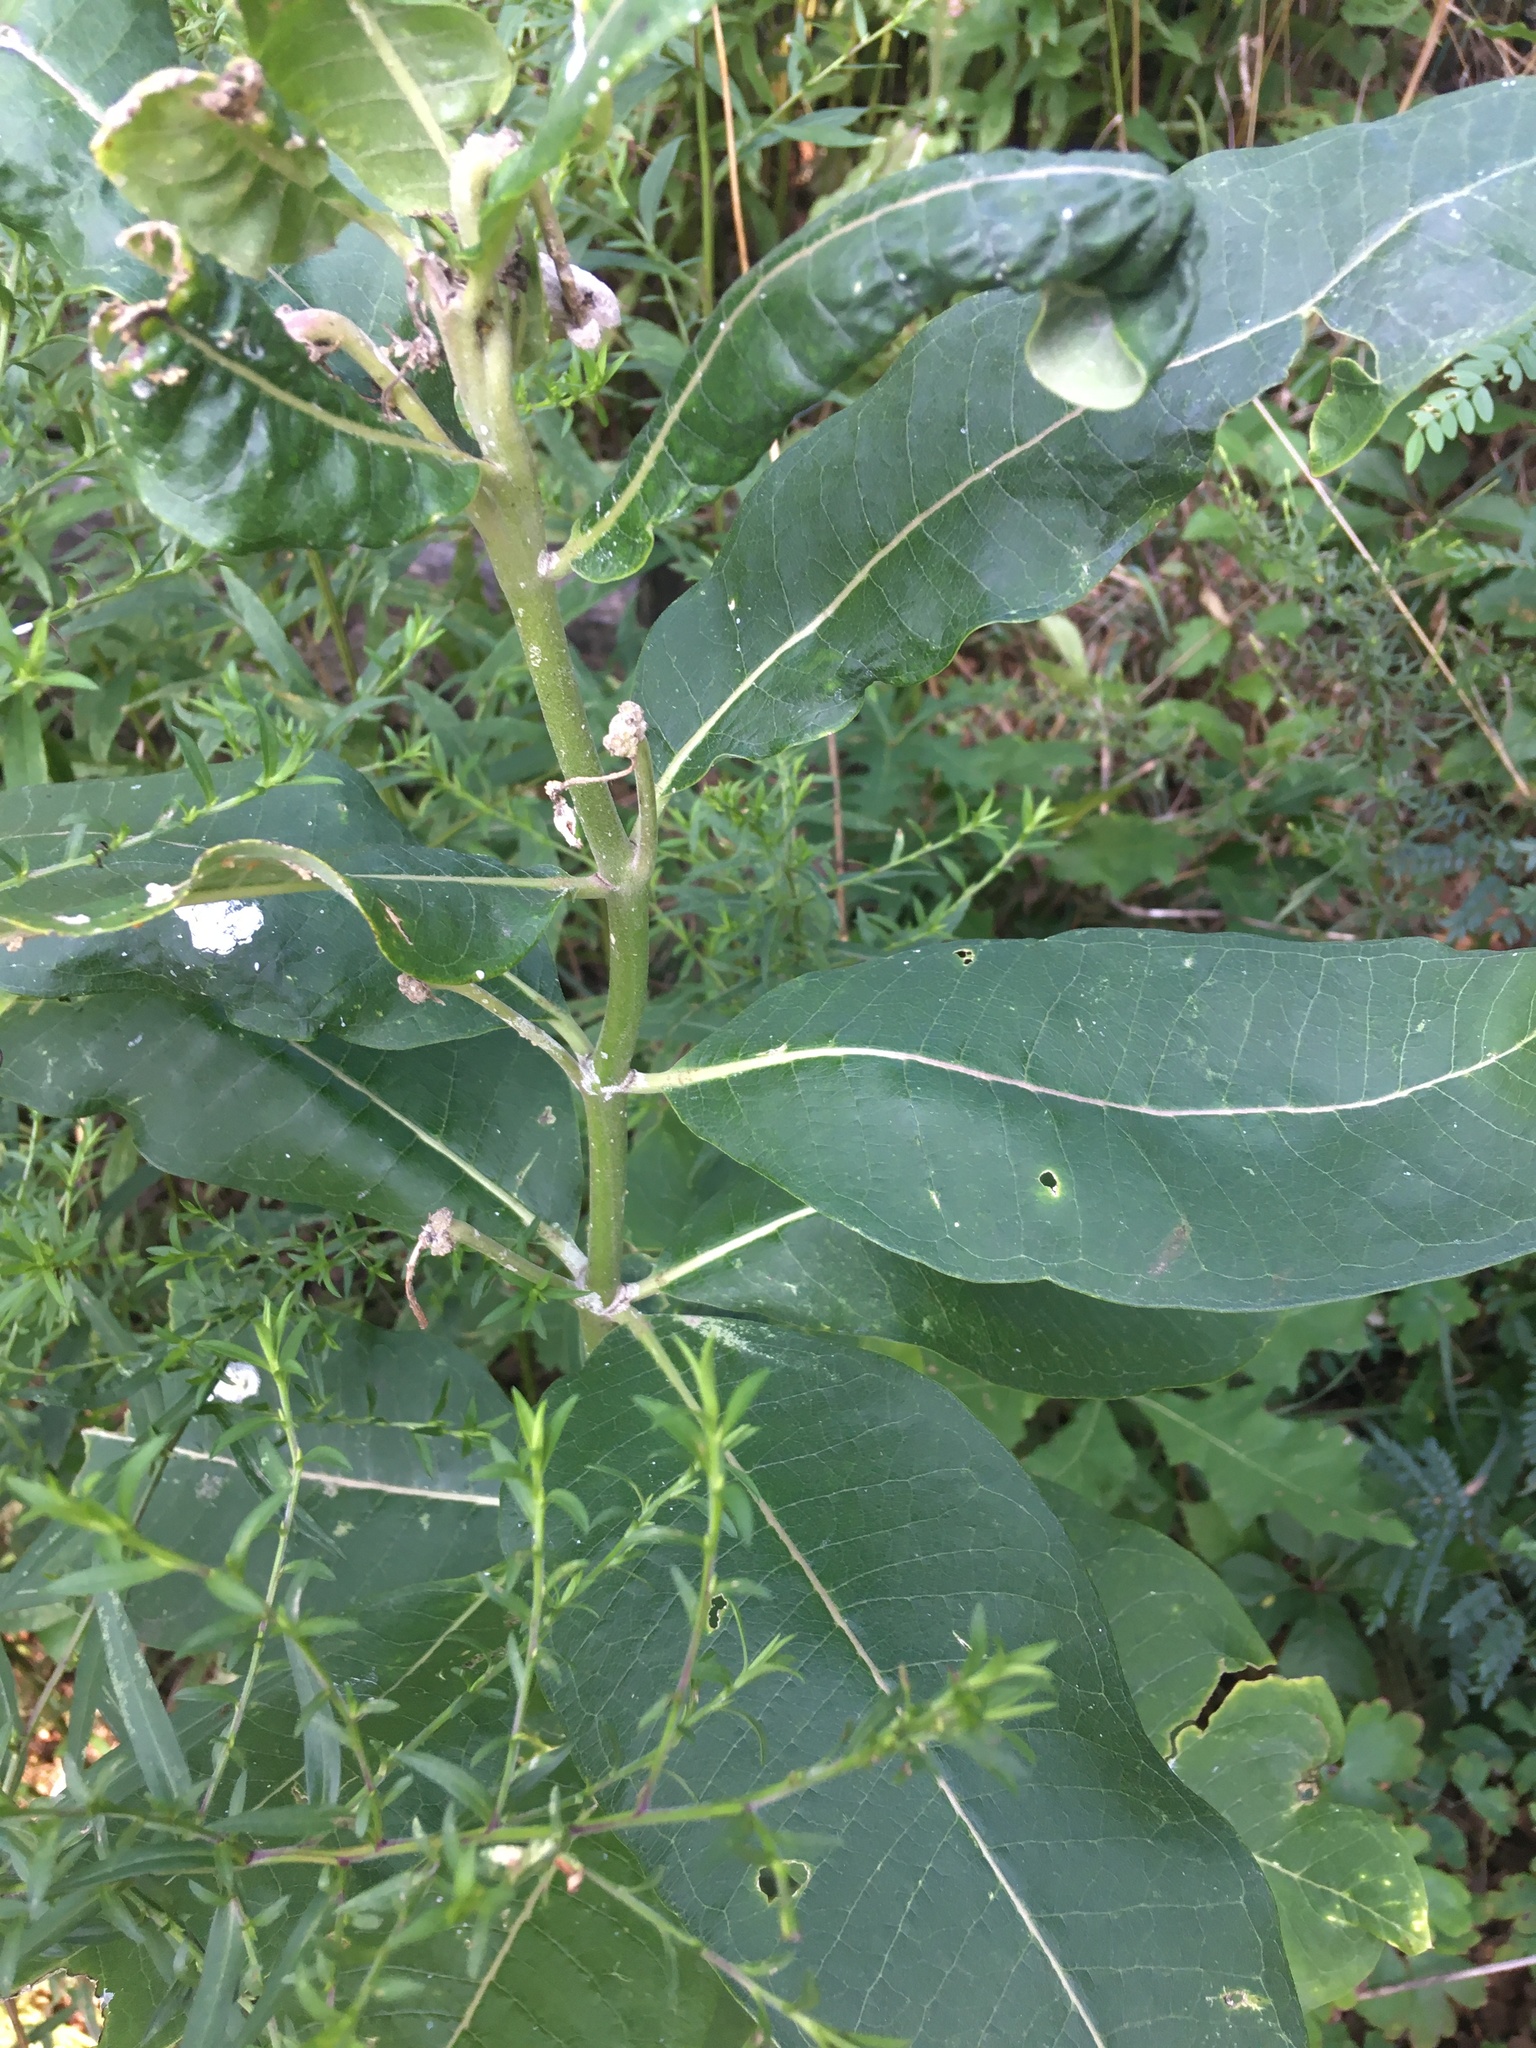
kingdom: Plantae
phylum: Tracheophyta
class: Magnoliopsida
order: Gentianales
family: Apocynaceae
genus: Asclepias
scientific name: Asclepias syriaca
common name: Common milkweed
